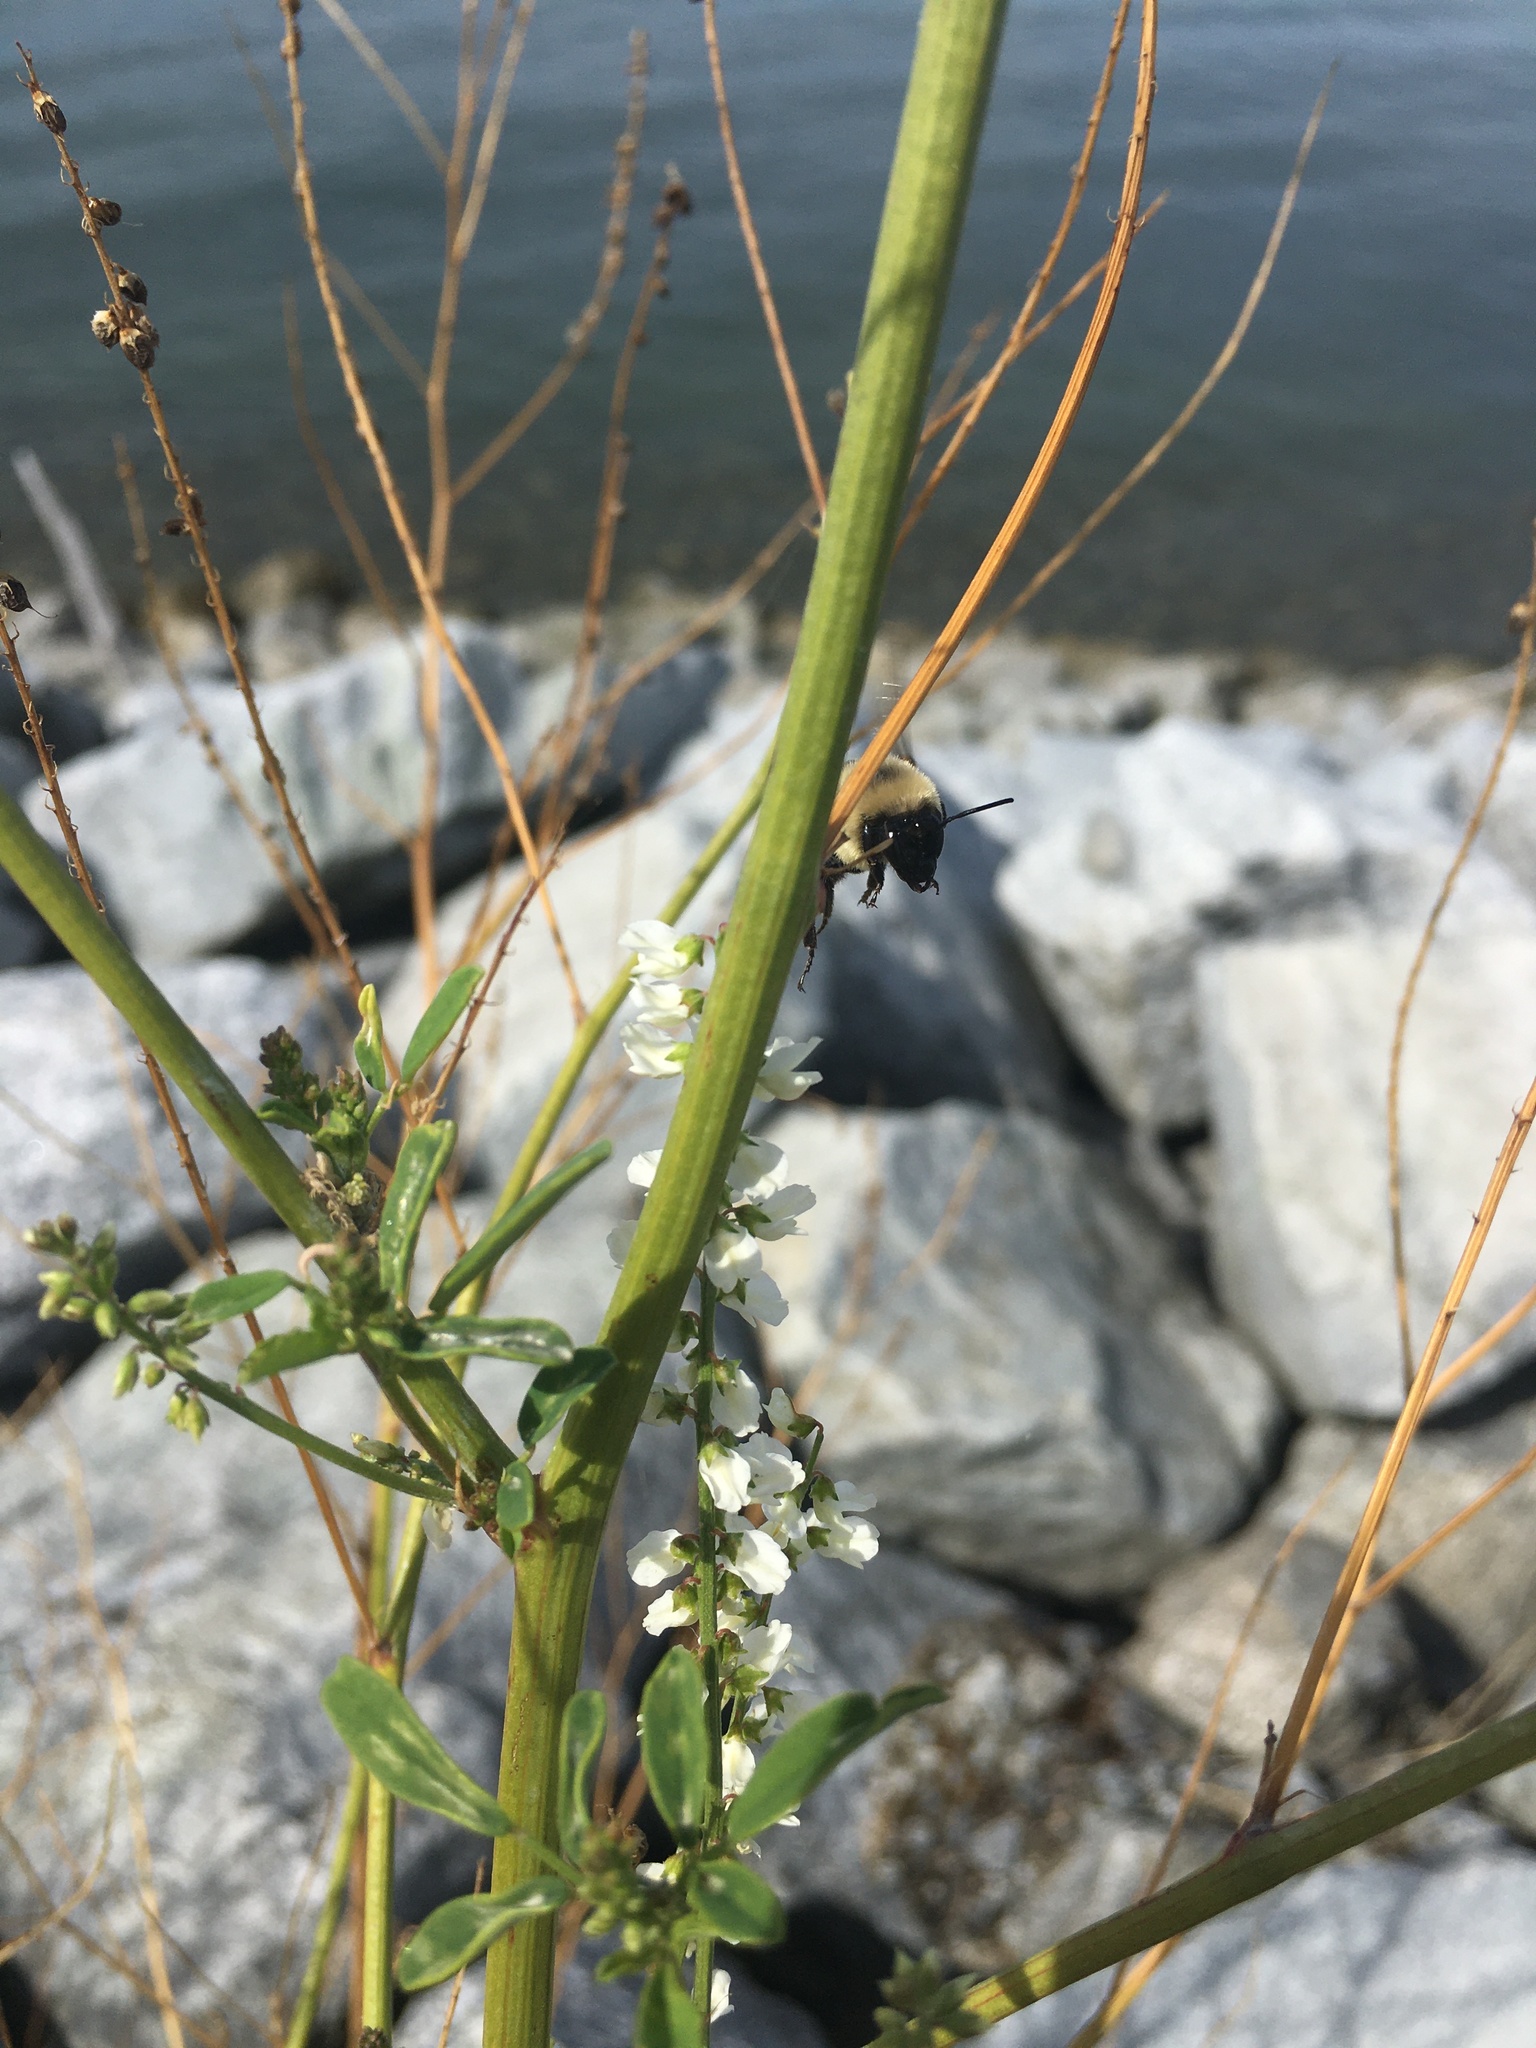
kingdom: Animalia
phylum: Arthropoda
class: Insecta
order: Hymenoptera
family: Apidae
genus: Bombus
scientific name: Bombus impatiens
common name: Common eastern bumble bee
